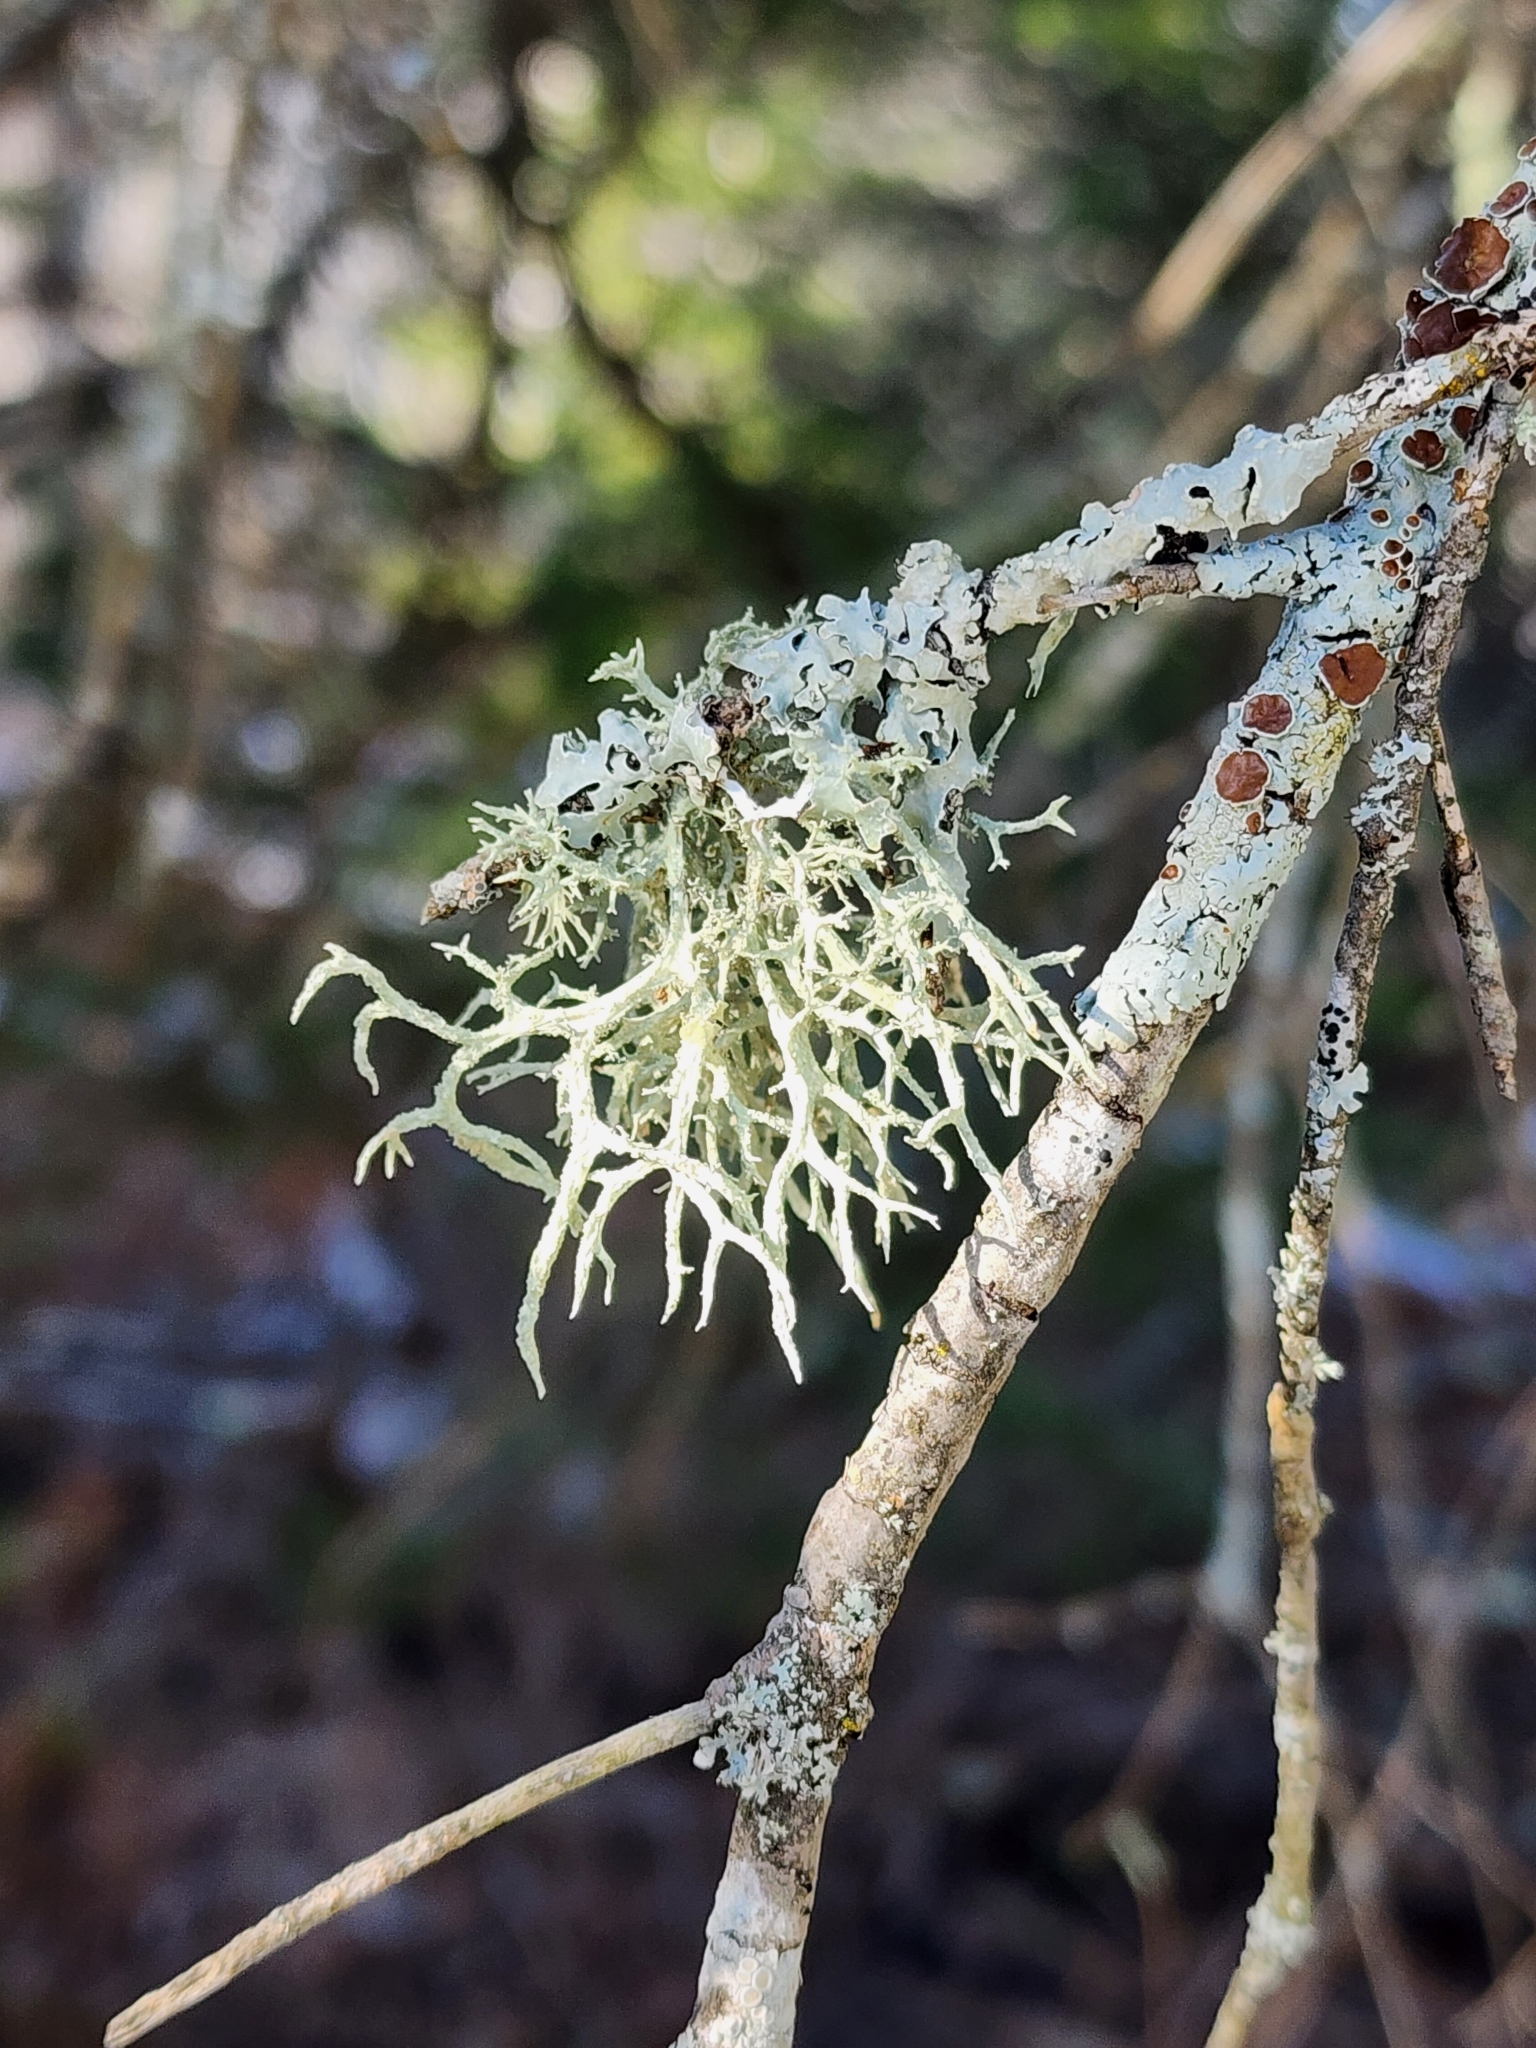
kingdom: Fungi
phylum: Ascomycota
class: Lecanoromycetes
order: Lecanorales
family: Parmeliaceae
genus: Evernia
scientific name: Evernia mesomorpha
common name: Boreal oak moss lichen
